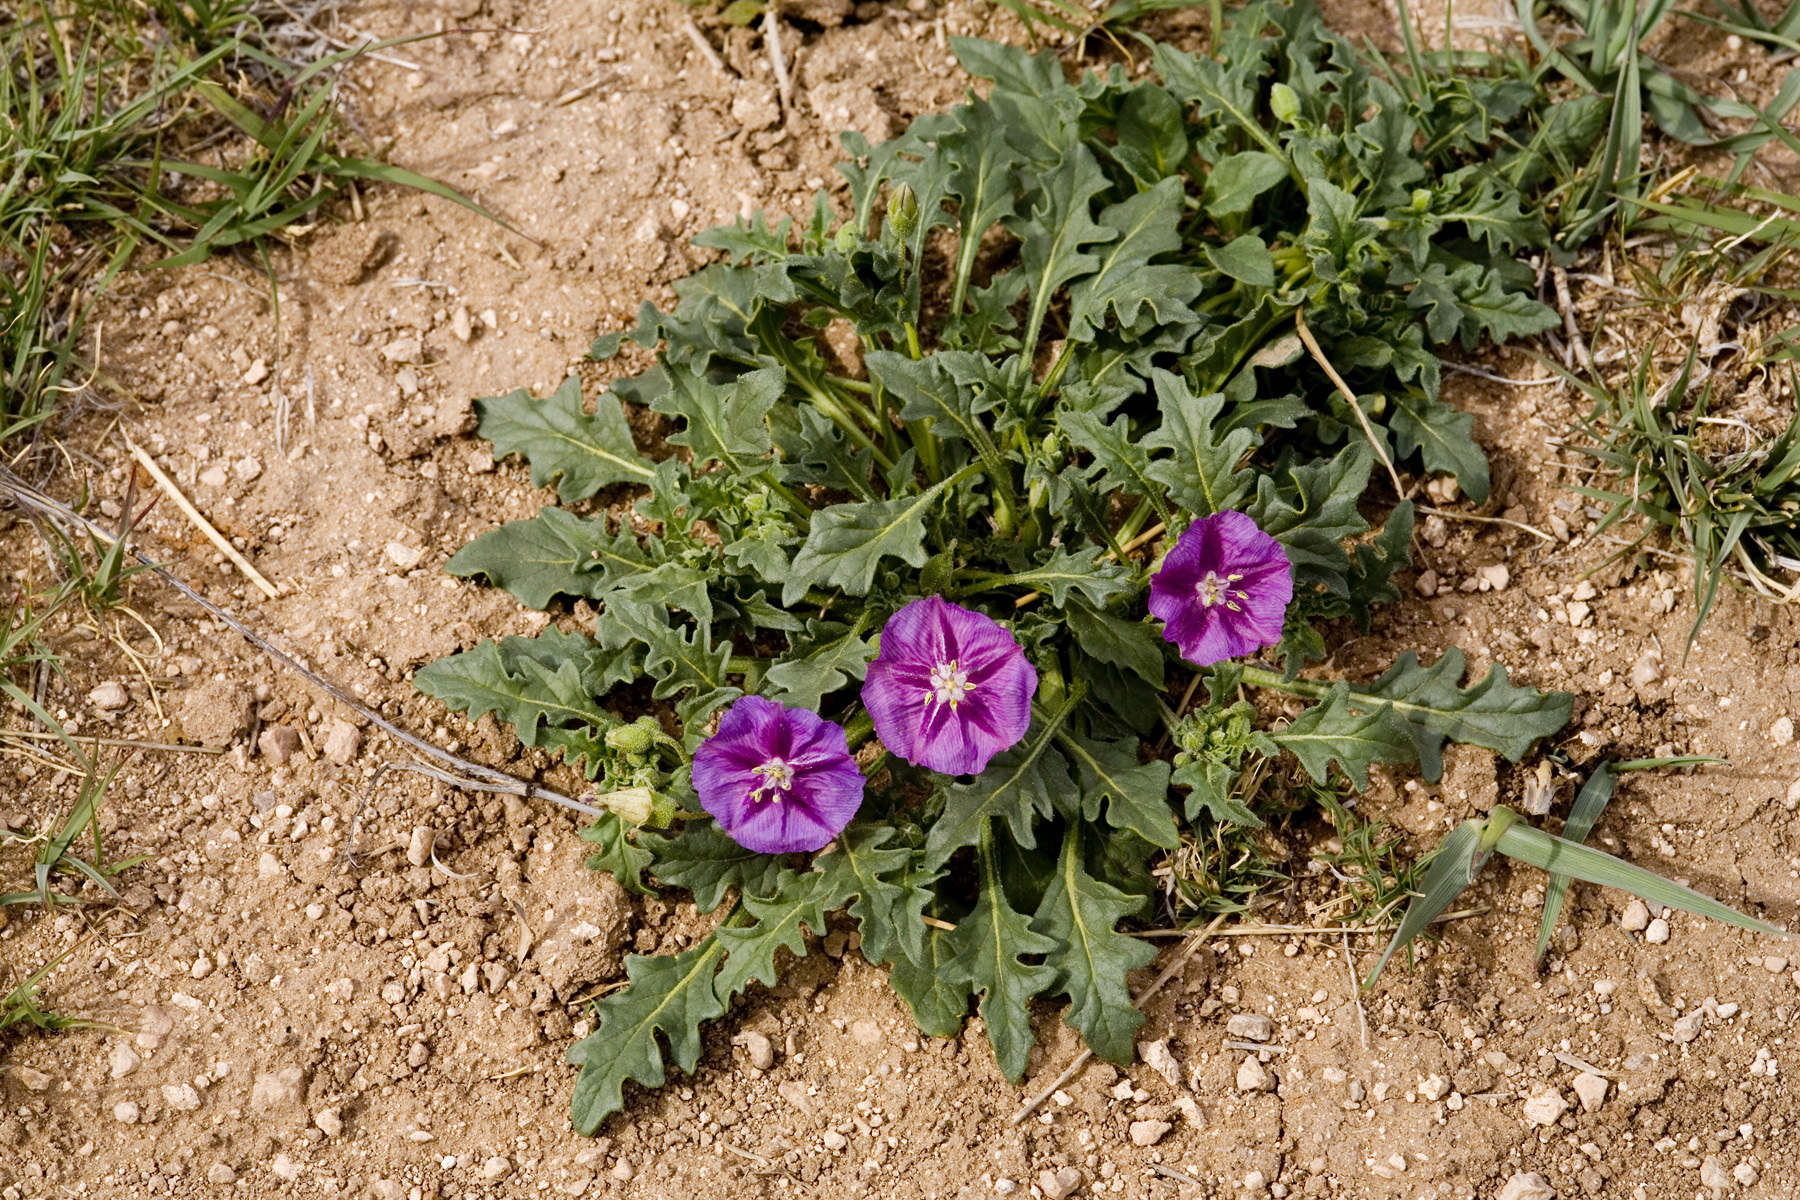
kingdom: Plantae
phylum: Tracheophyta
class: Magnoliopsida
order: Solanales
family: Solanaceae
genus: Quincula
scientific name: Quincula lobata
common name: Purple-ground-cherry
